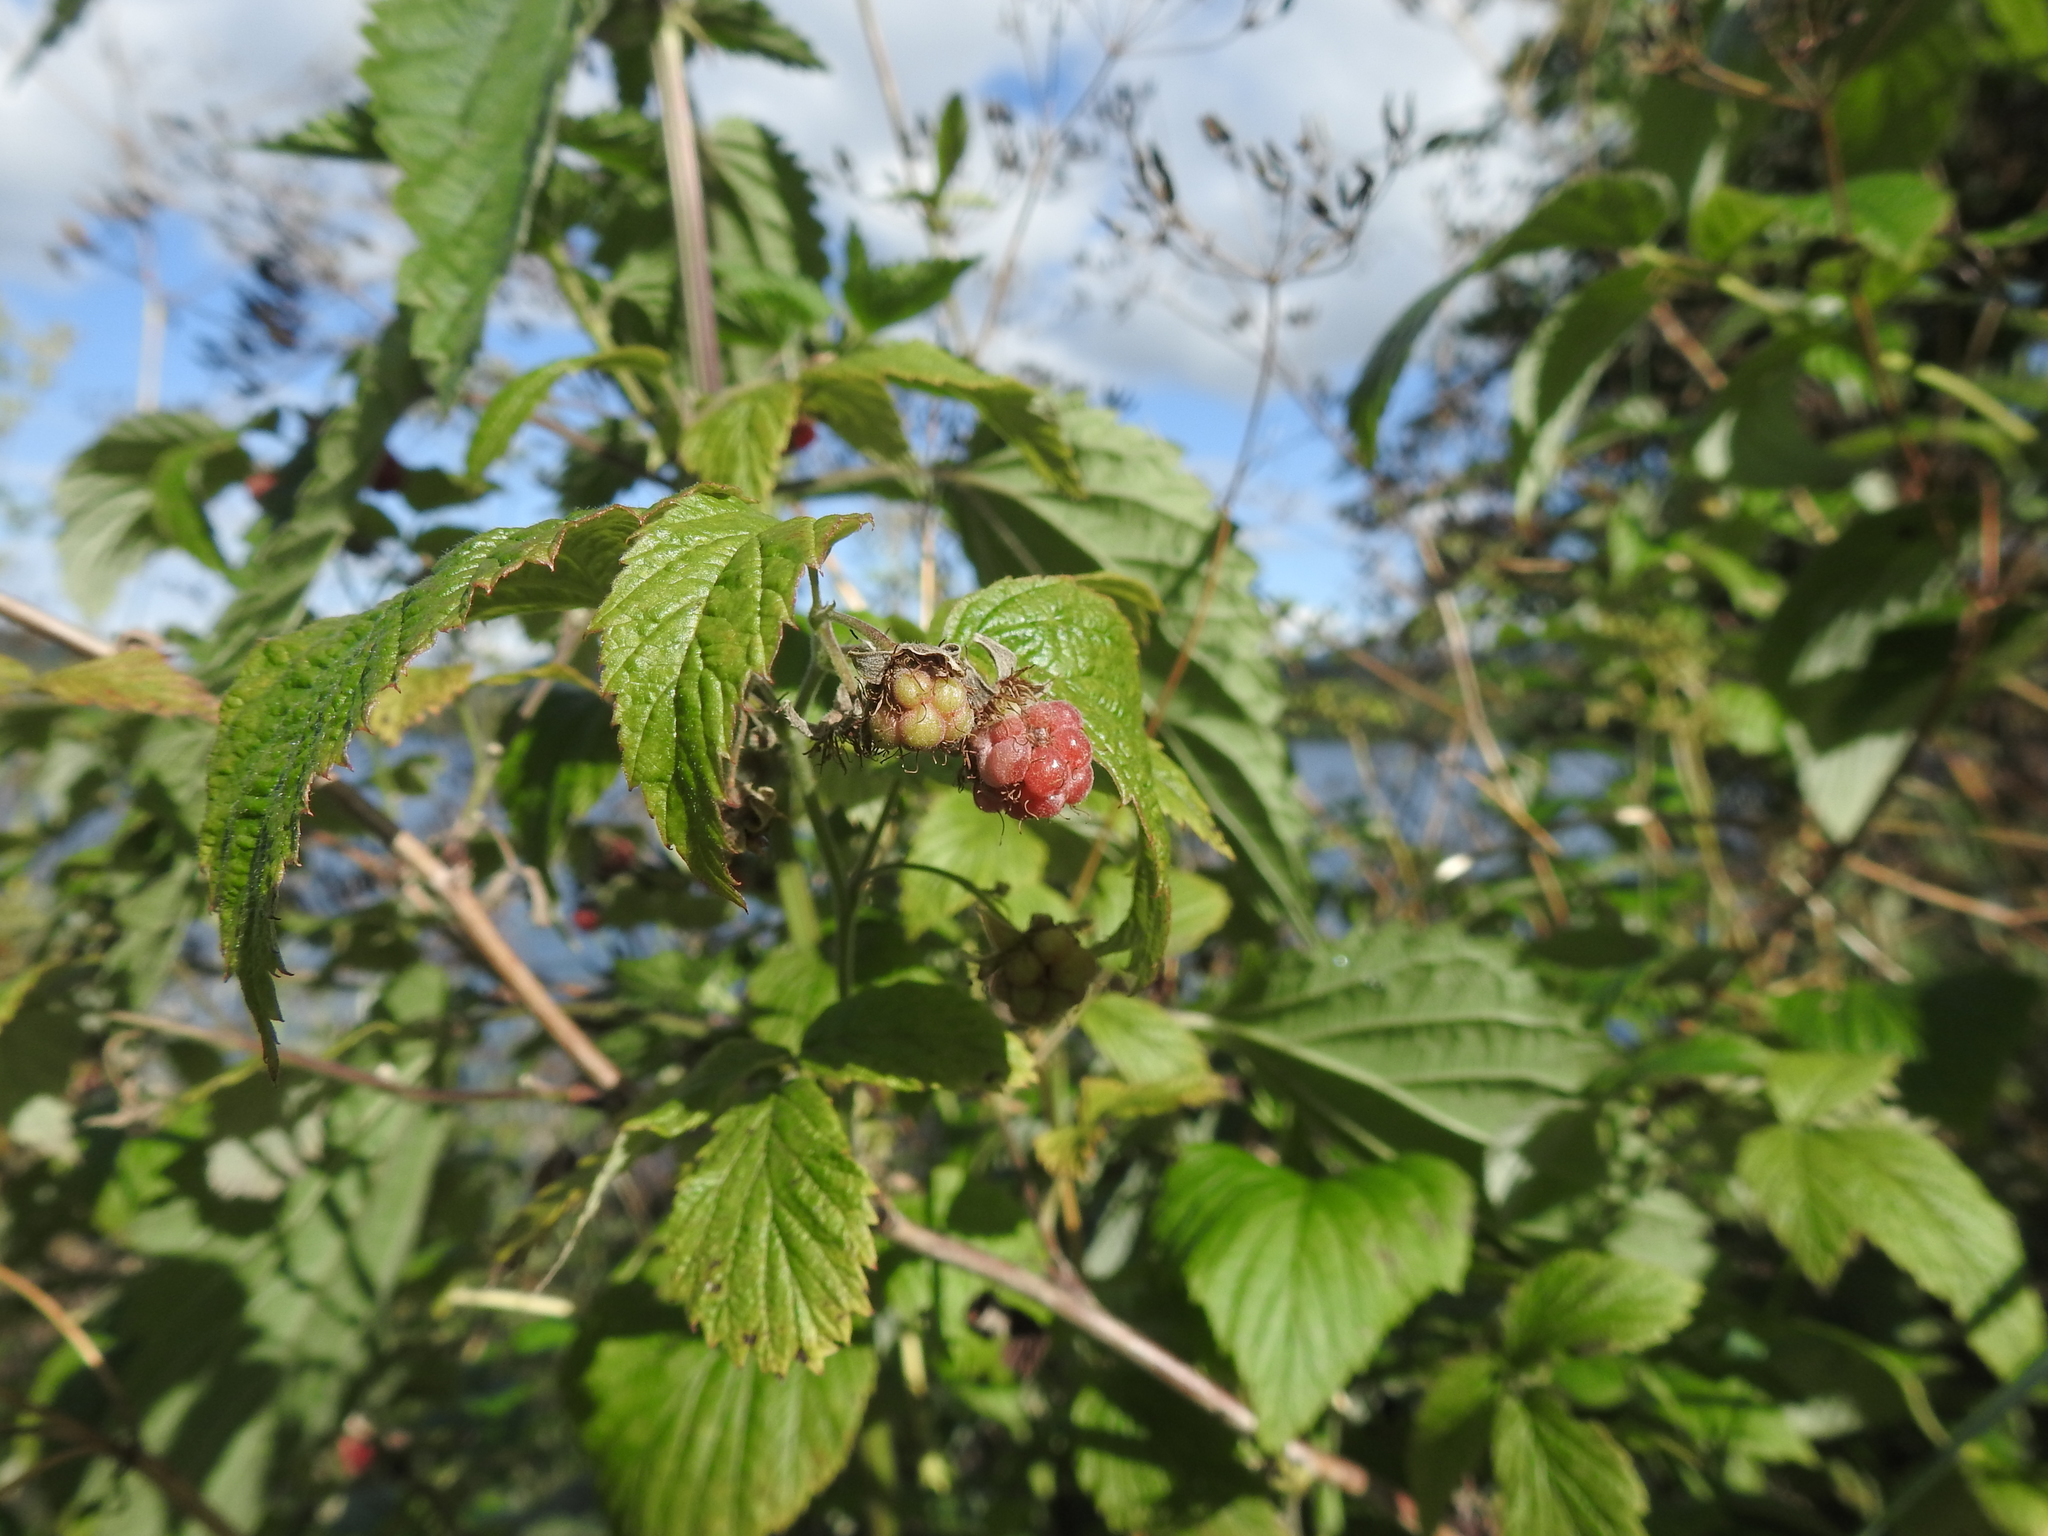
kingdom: Plantae
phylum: Tracheophyta
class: Magnoliopsida
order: Rosales
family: Rosaceae
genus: Rubus
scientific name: Rubus idaeus
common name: Raspberry
